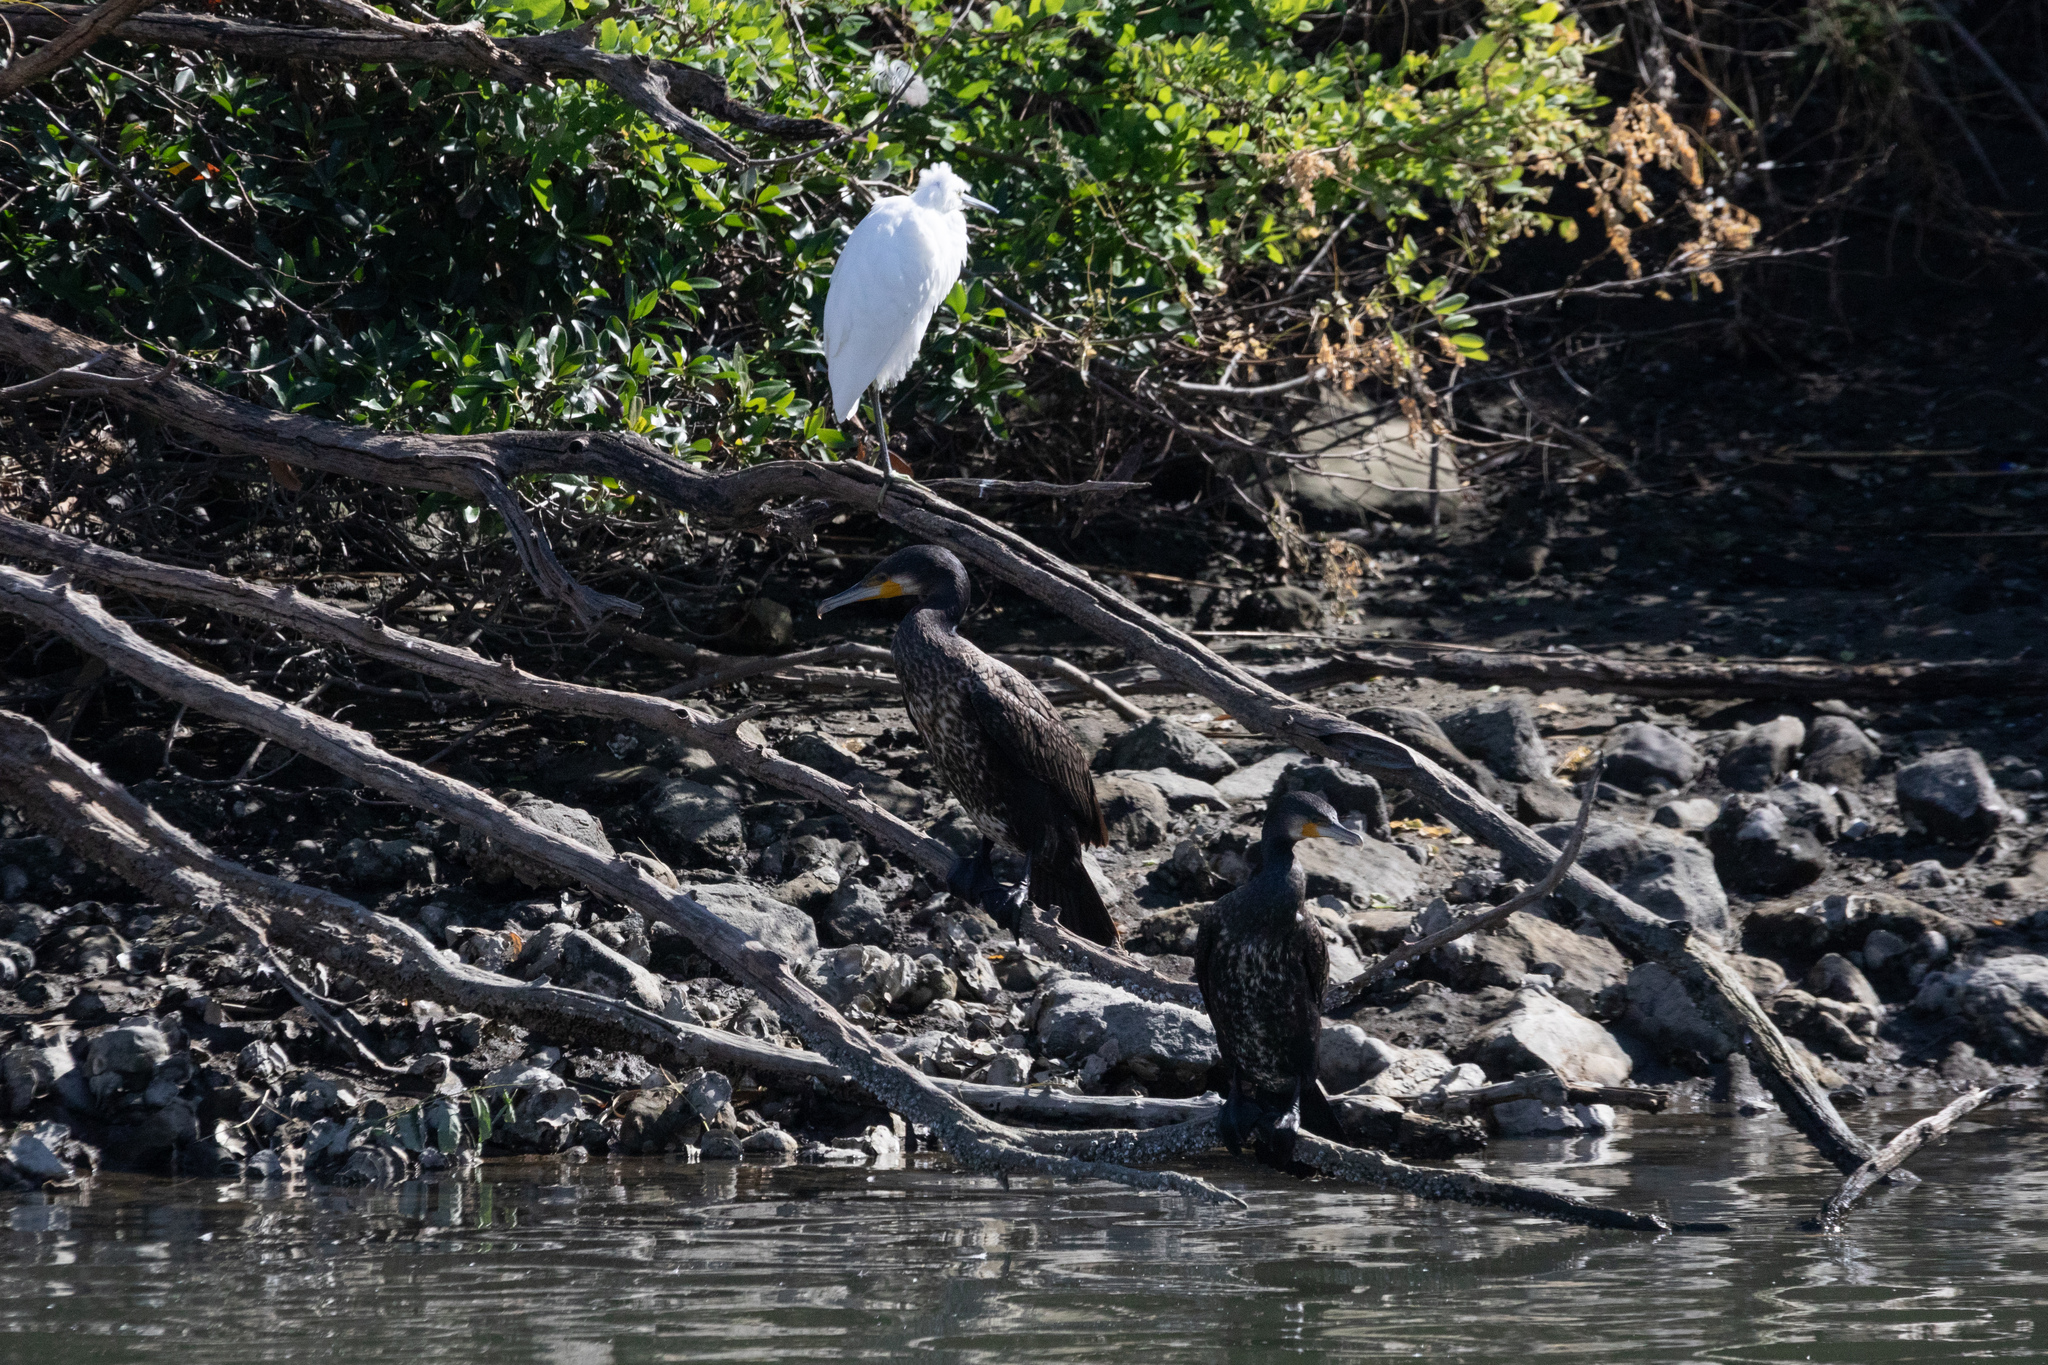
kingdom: Animalia
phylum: Chordata
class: Aves
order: Suliformes
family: Phalacrocoracidae
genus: Phalacrocorax
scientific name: Phalacrocorax carbo
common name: Great cormorant
